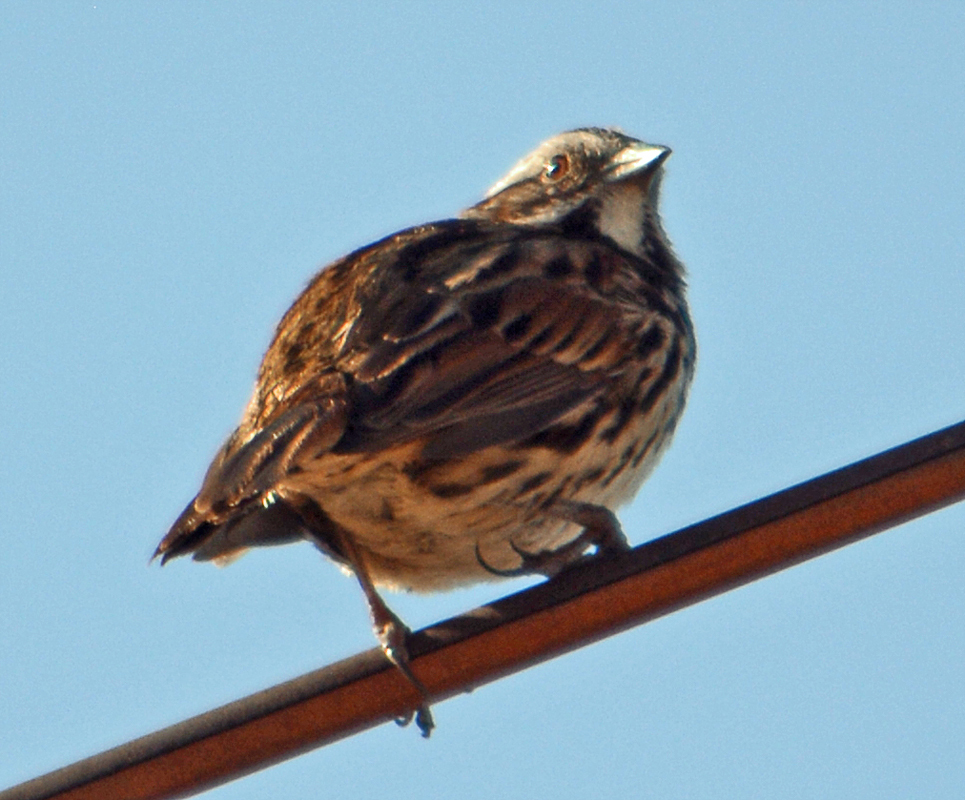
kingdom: Animalia
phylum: Chordata
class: Aves
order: Passeriformes
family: Passerellidae
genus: Melospiza
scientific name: Melospiza melodia
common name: Song sparrow
